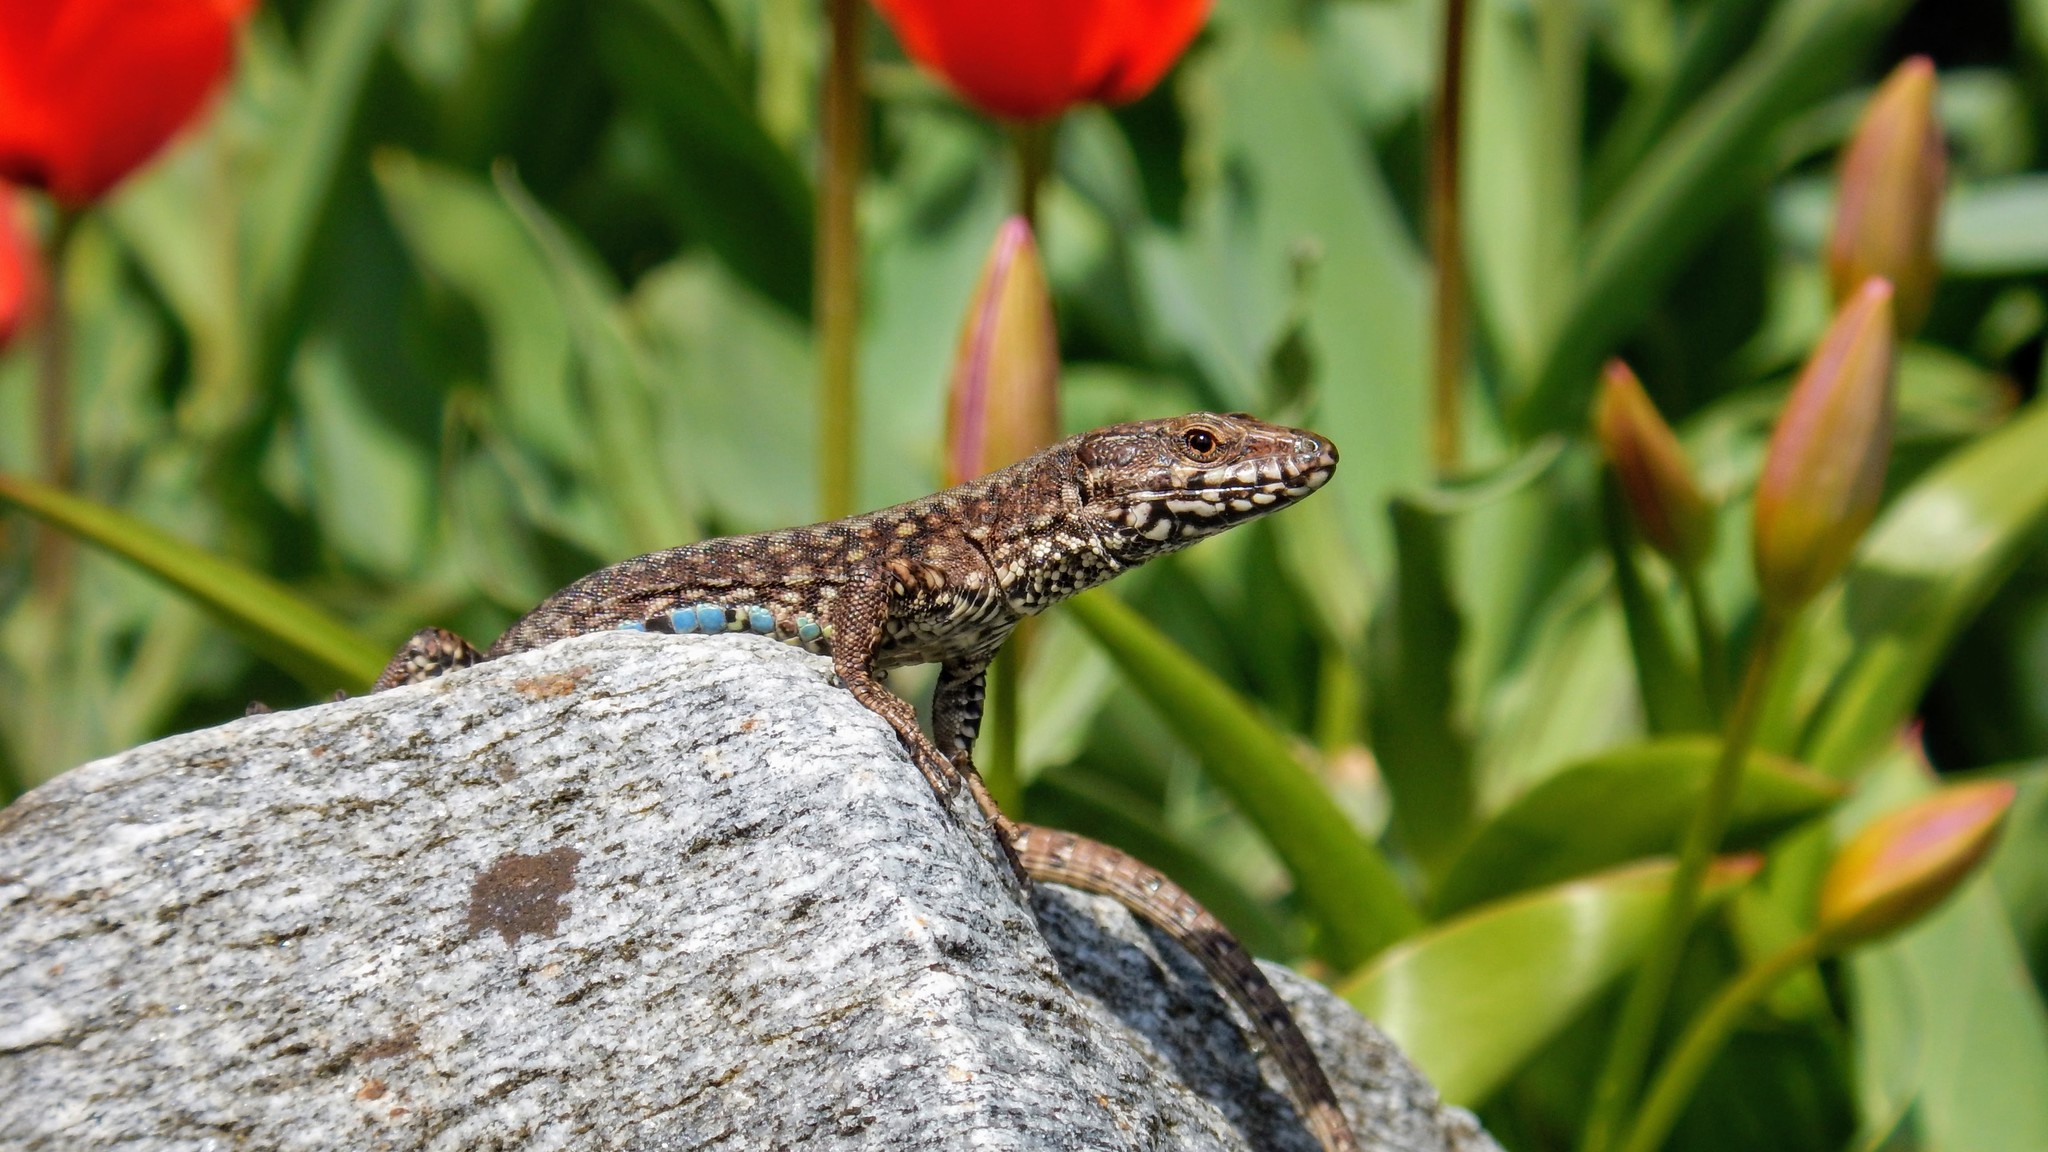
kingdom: Animalia
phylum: Chordata
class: Squamata
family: Lacertidae
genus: Podarcis
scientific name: Podarcis muralis
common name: Common wall lizard
